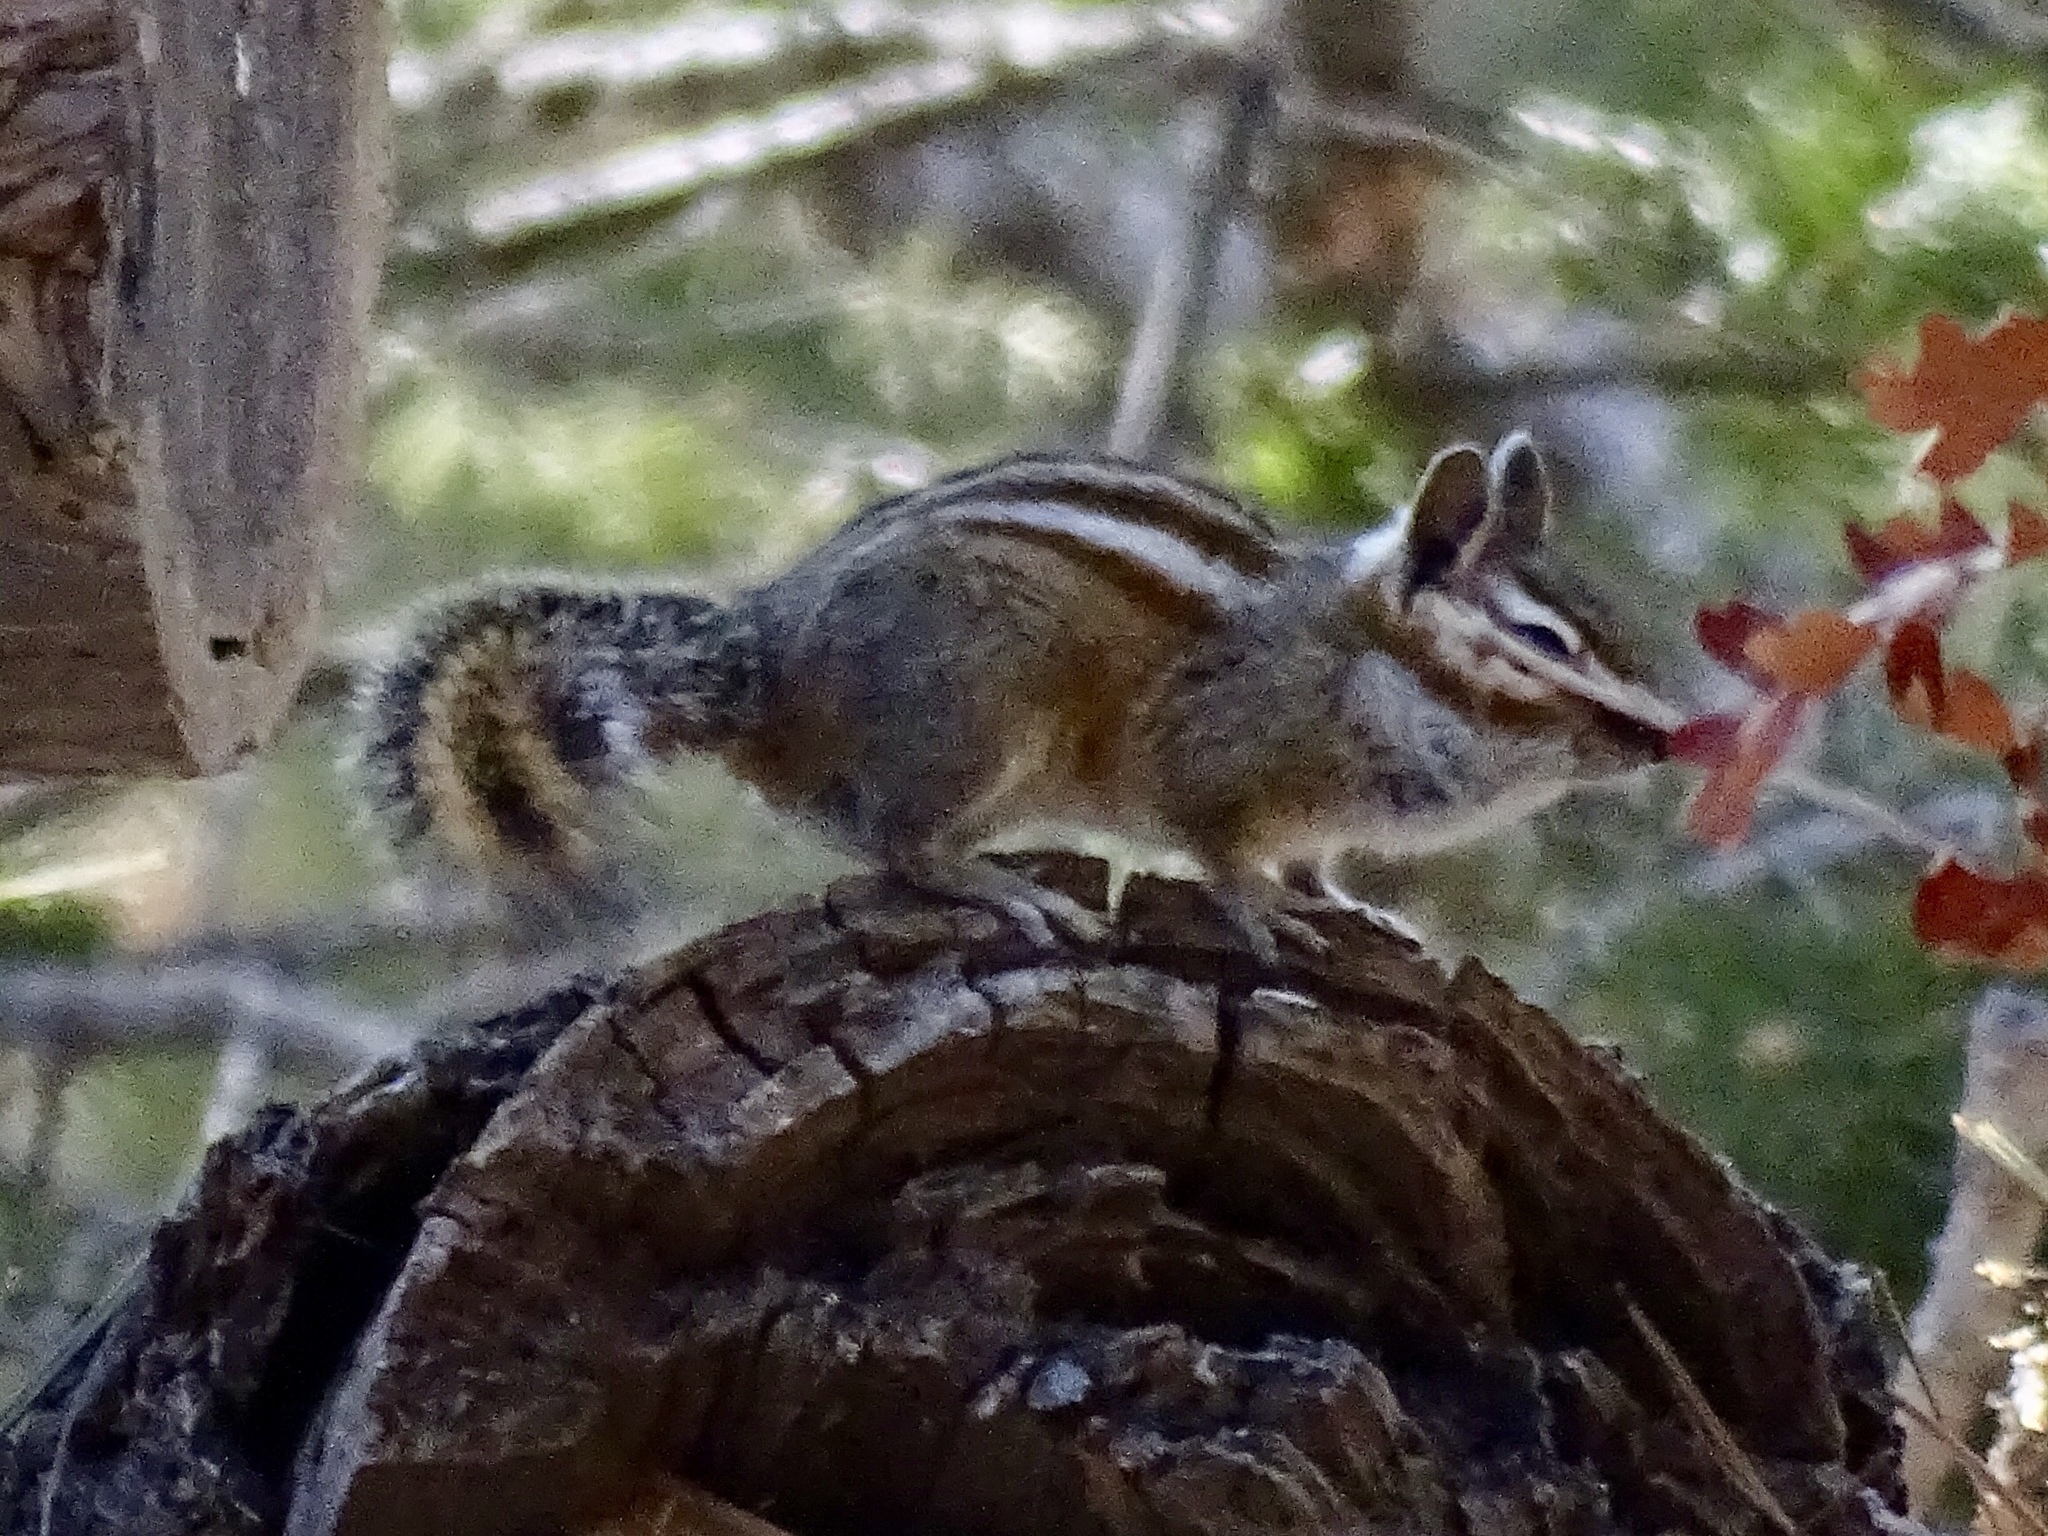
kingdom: Animalia
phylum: Chordata
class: Mammalia
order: Rodentia
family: Sciuridae
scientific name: Sciuridae
